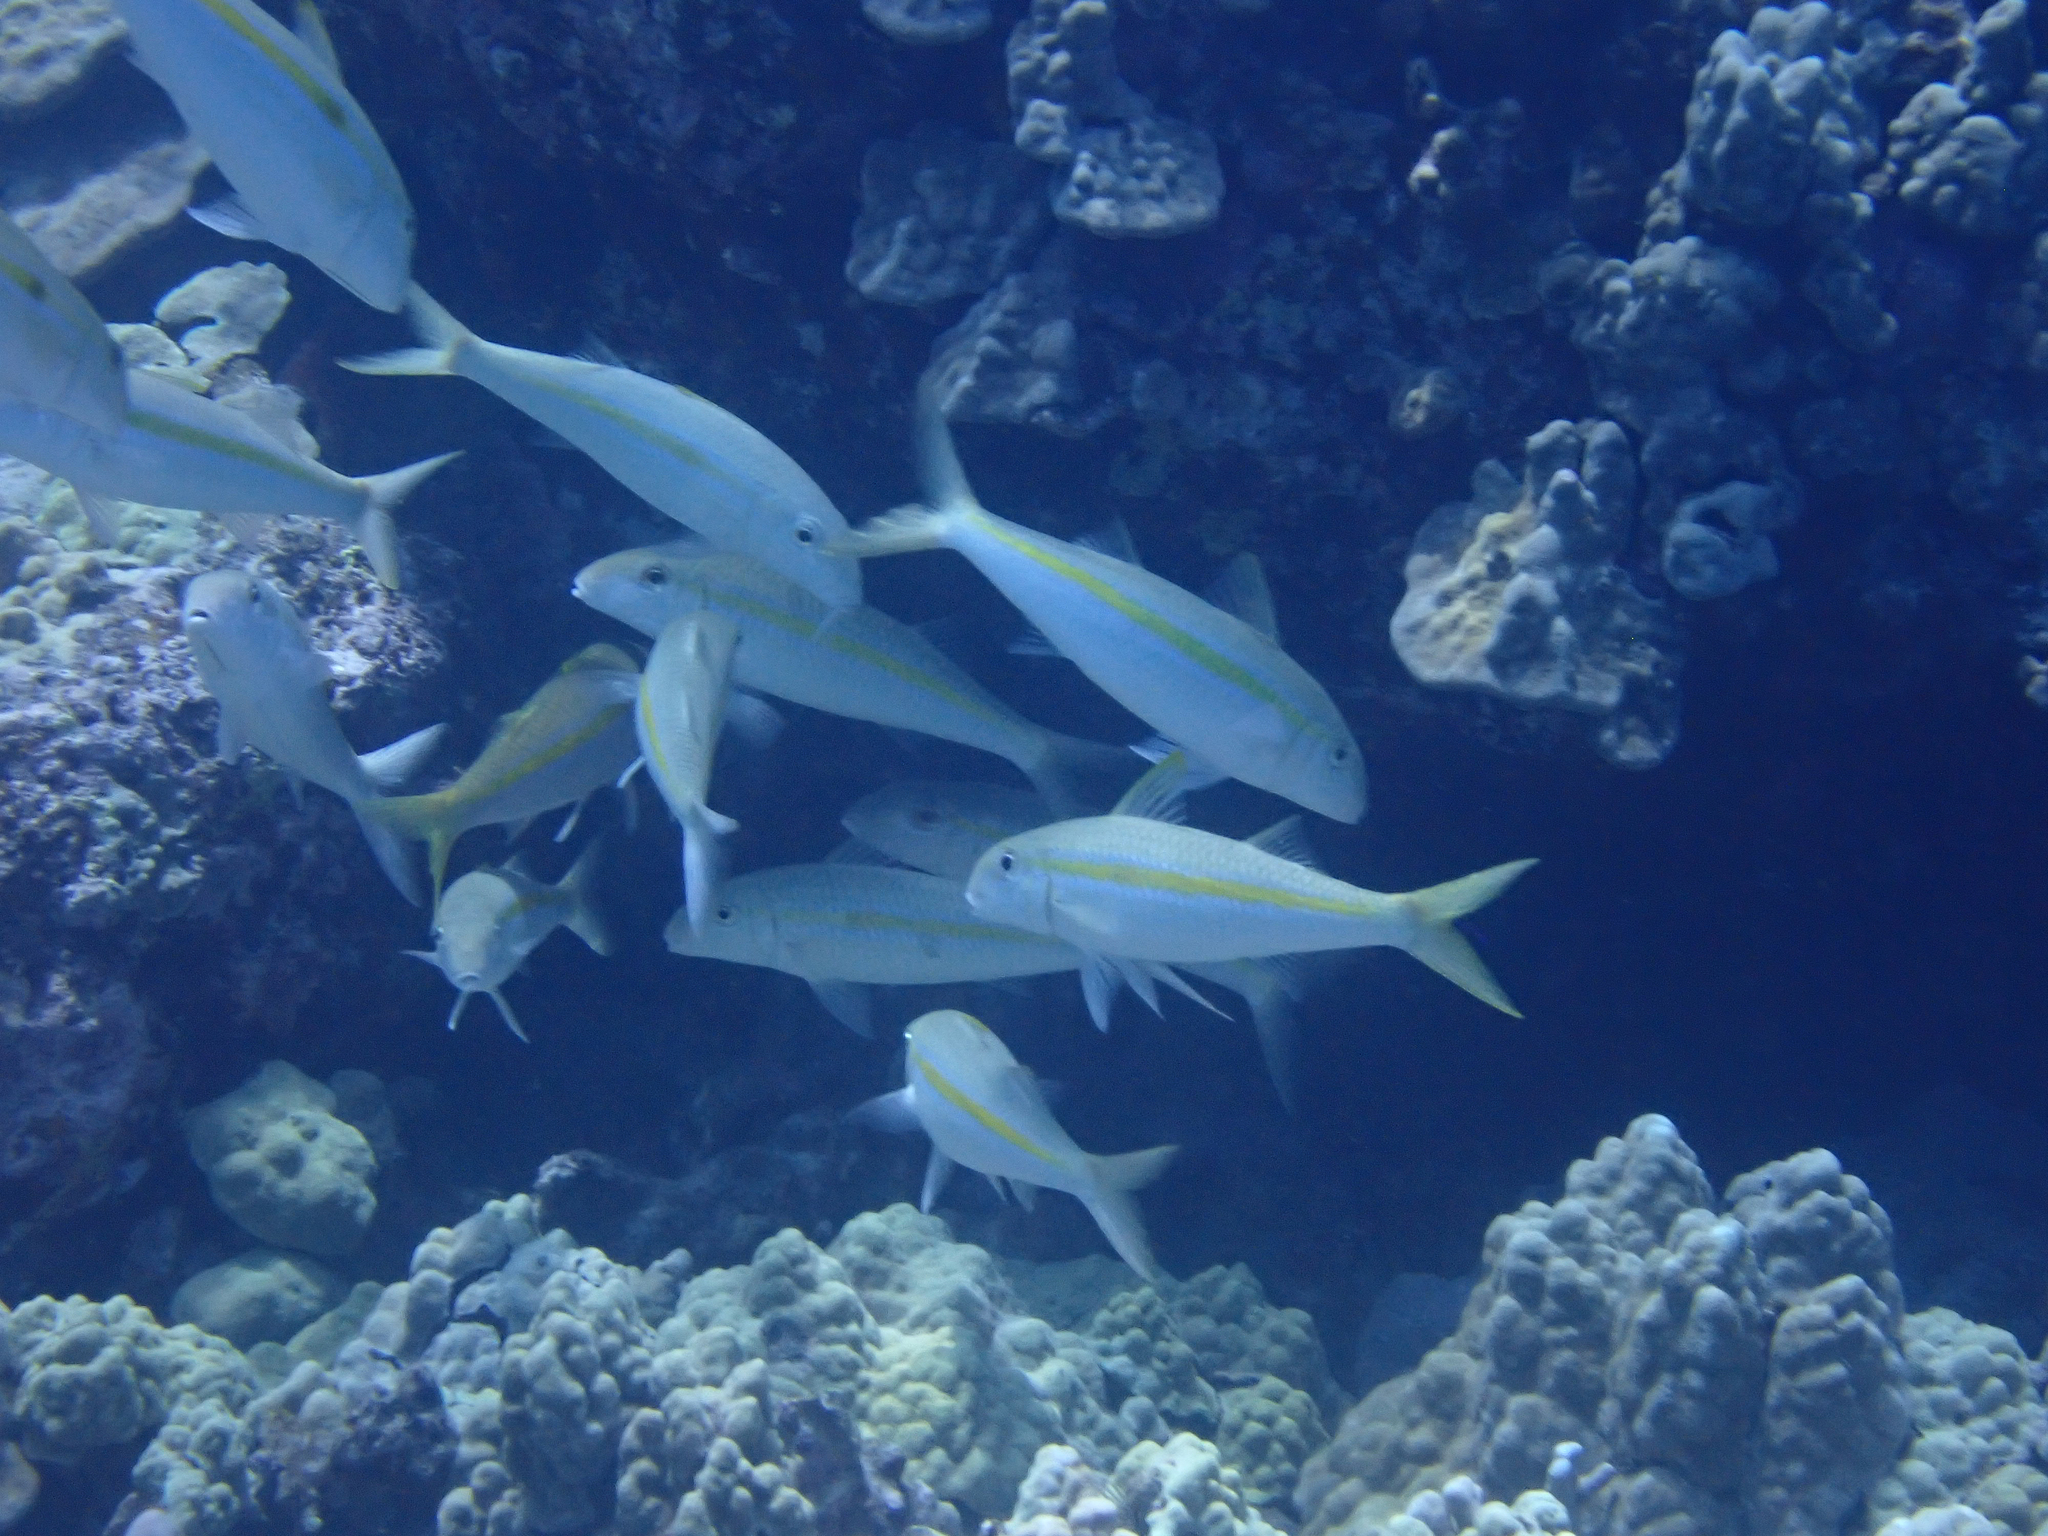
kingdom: Animalia
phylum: Chordata
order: Perciformes
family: Mullidae
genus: Mulloidichthys
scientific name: Mulloidichthys flavolineatus
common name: Yellowstripe goatfish
